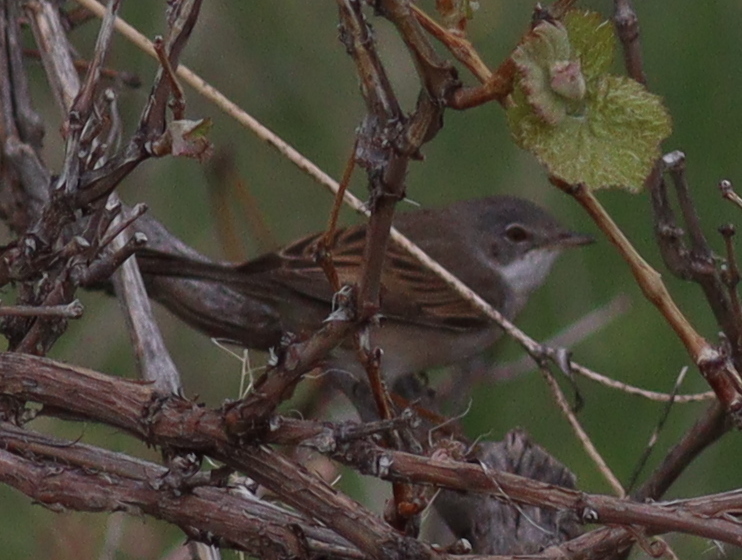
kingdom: Animalia
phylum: Chordata
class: Aves
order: Passeriformes
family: Sylviidae
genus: Sylvia
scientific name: Sylvia communis
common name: Common whitethroat
